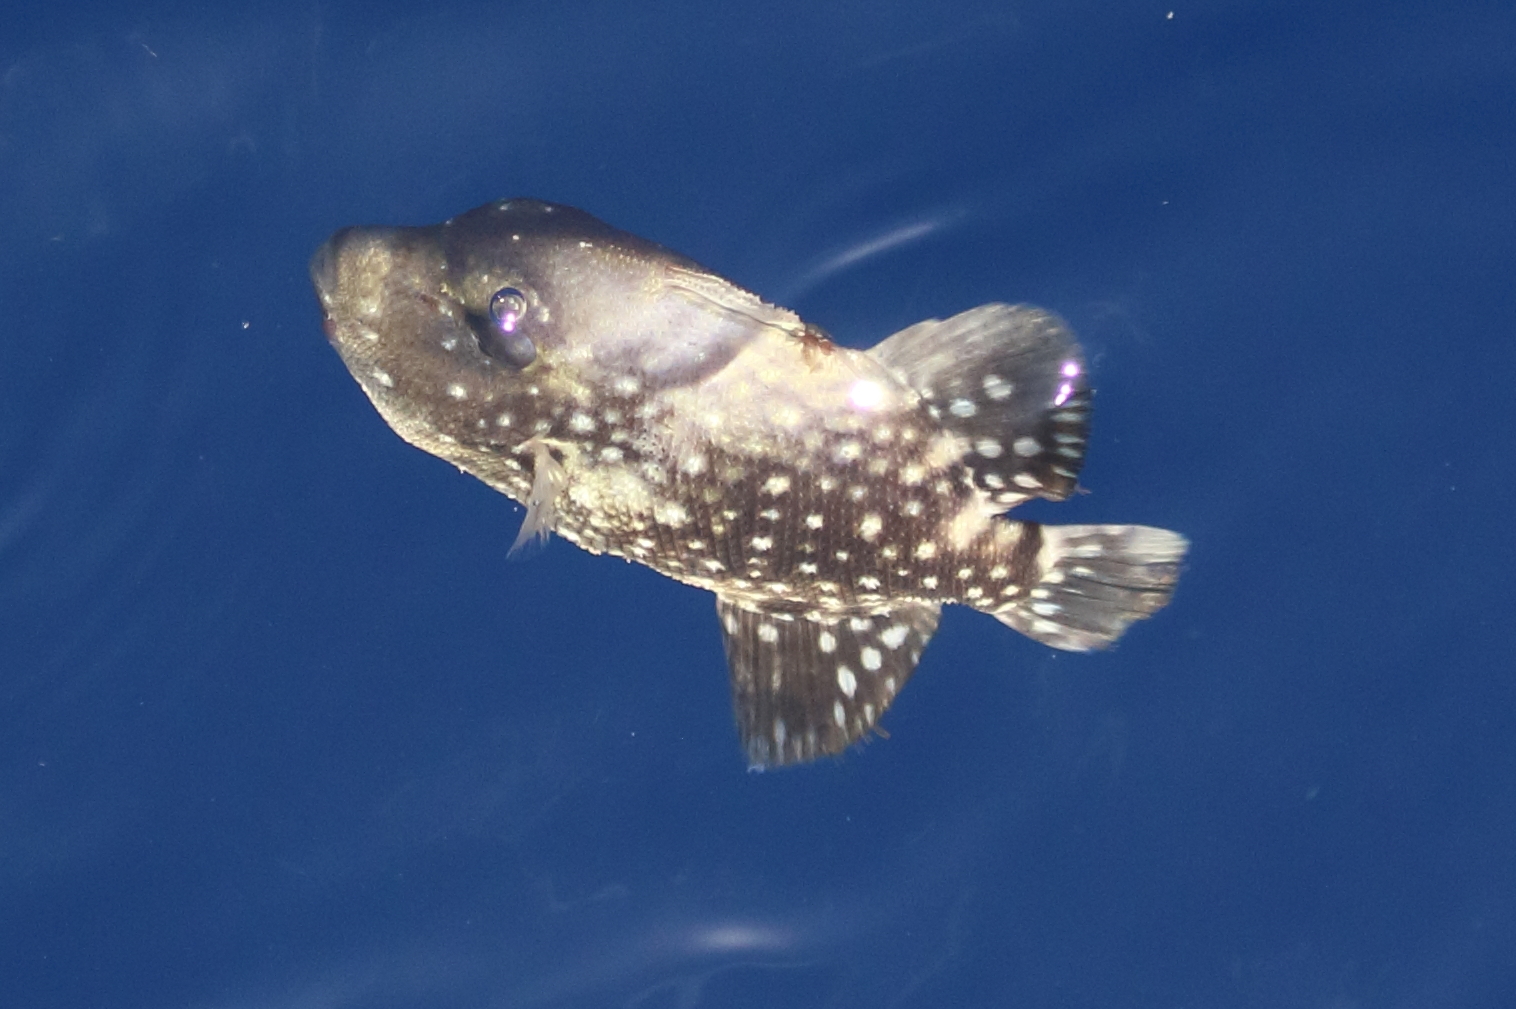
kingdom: Animalia
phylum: Chordata
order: Tetraodontiformes
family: Balistidae
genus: Canthidermis
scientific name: Canthidermis maculata
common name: Rough triggerfish
